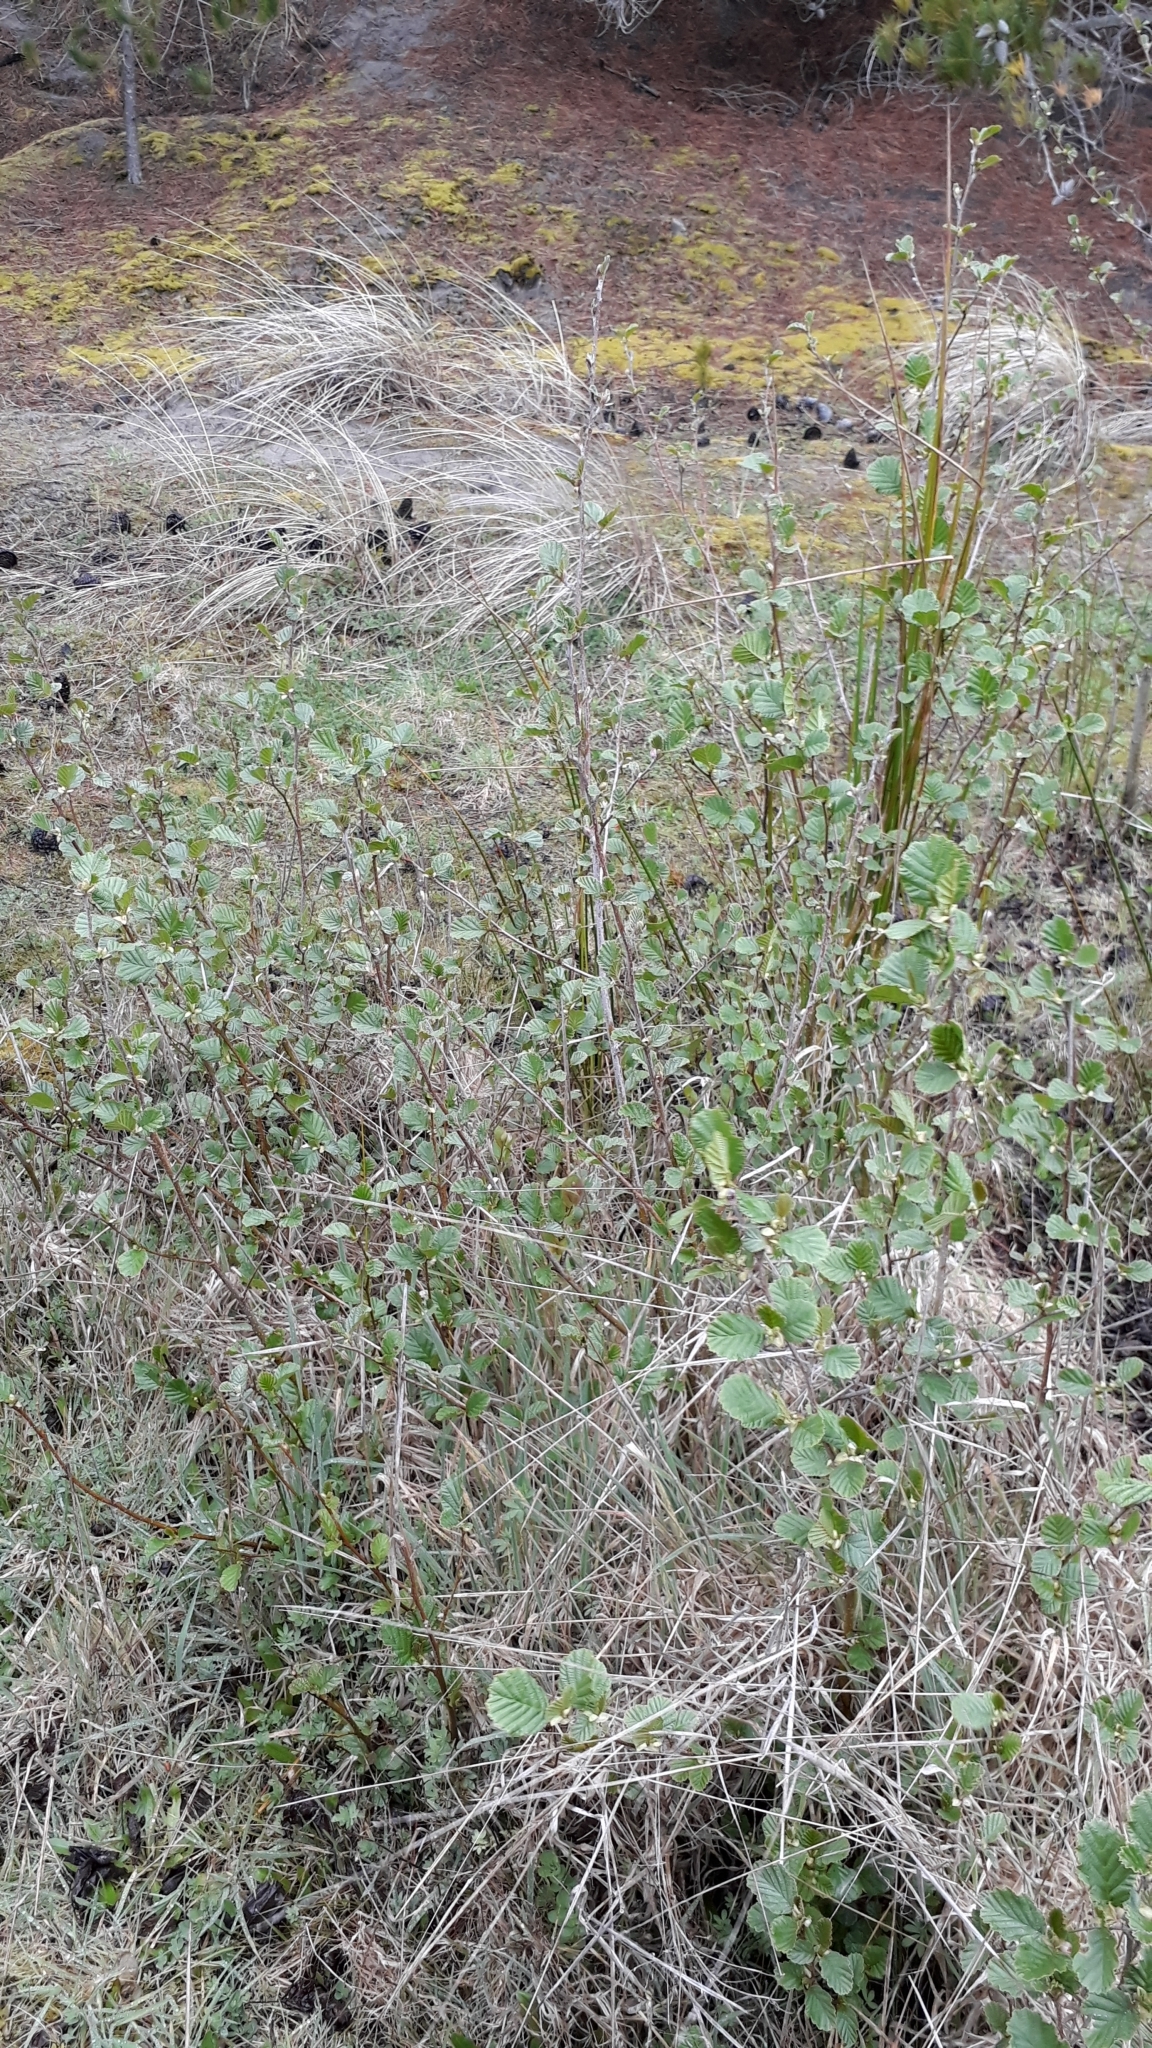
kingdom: Plantae
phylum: Tracheophyta
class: Magnoliopsida
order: Fagales
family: Betulaceae
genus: Alnus
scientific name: Alnus glutinosa
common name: Black alder
